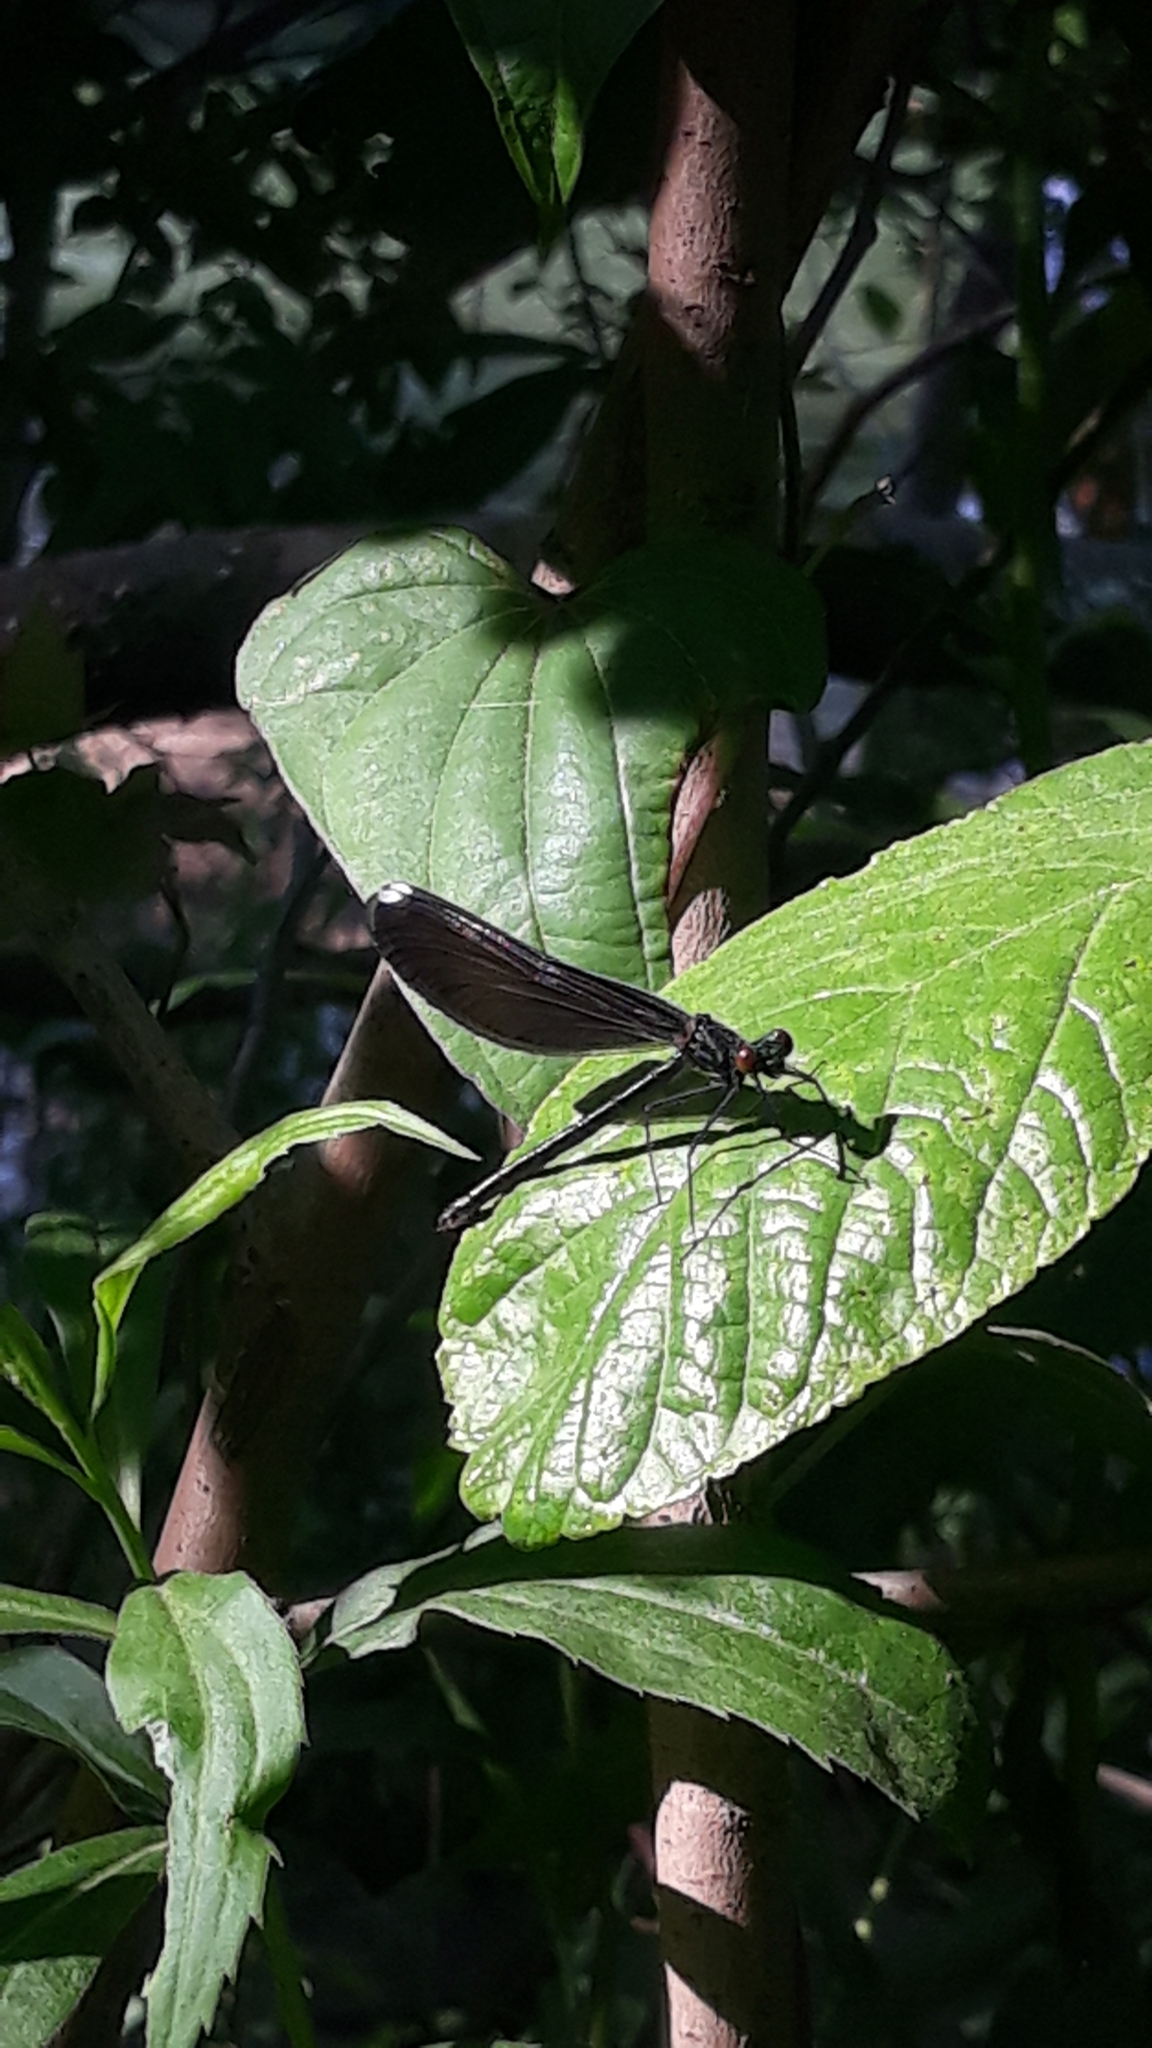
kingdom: Animalia
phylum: Arthropoda
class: Insecta
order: Odonata
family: Calopterygidae
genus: Calopteryx
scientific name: Calopteryx maculata
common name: Ebony jewelwing
